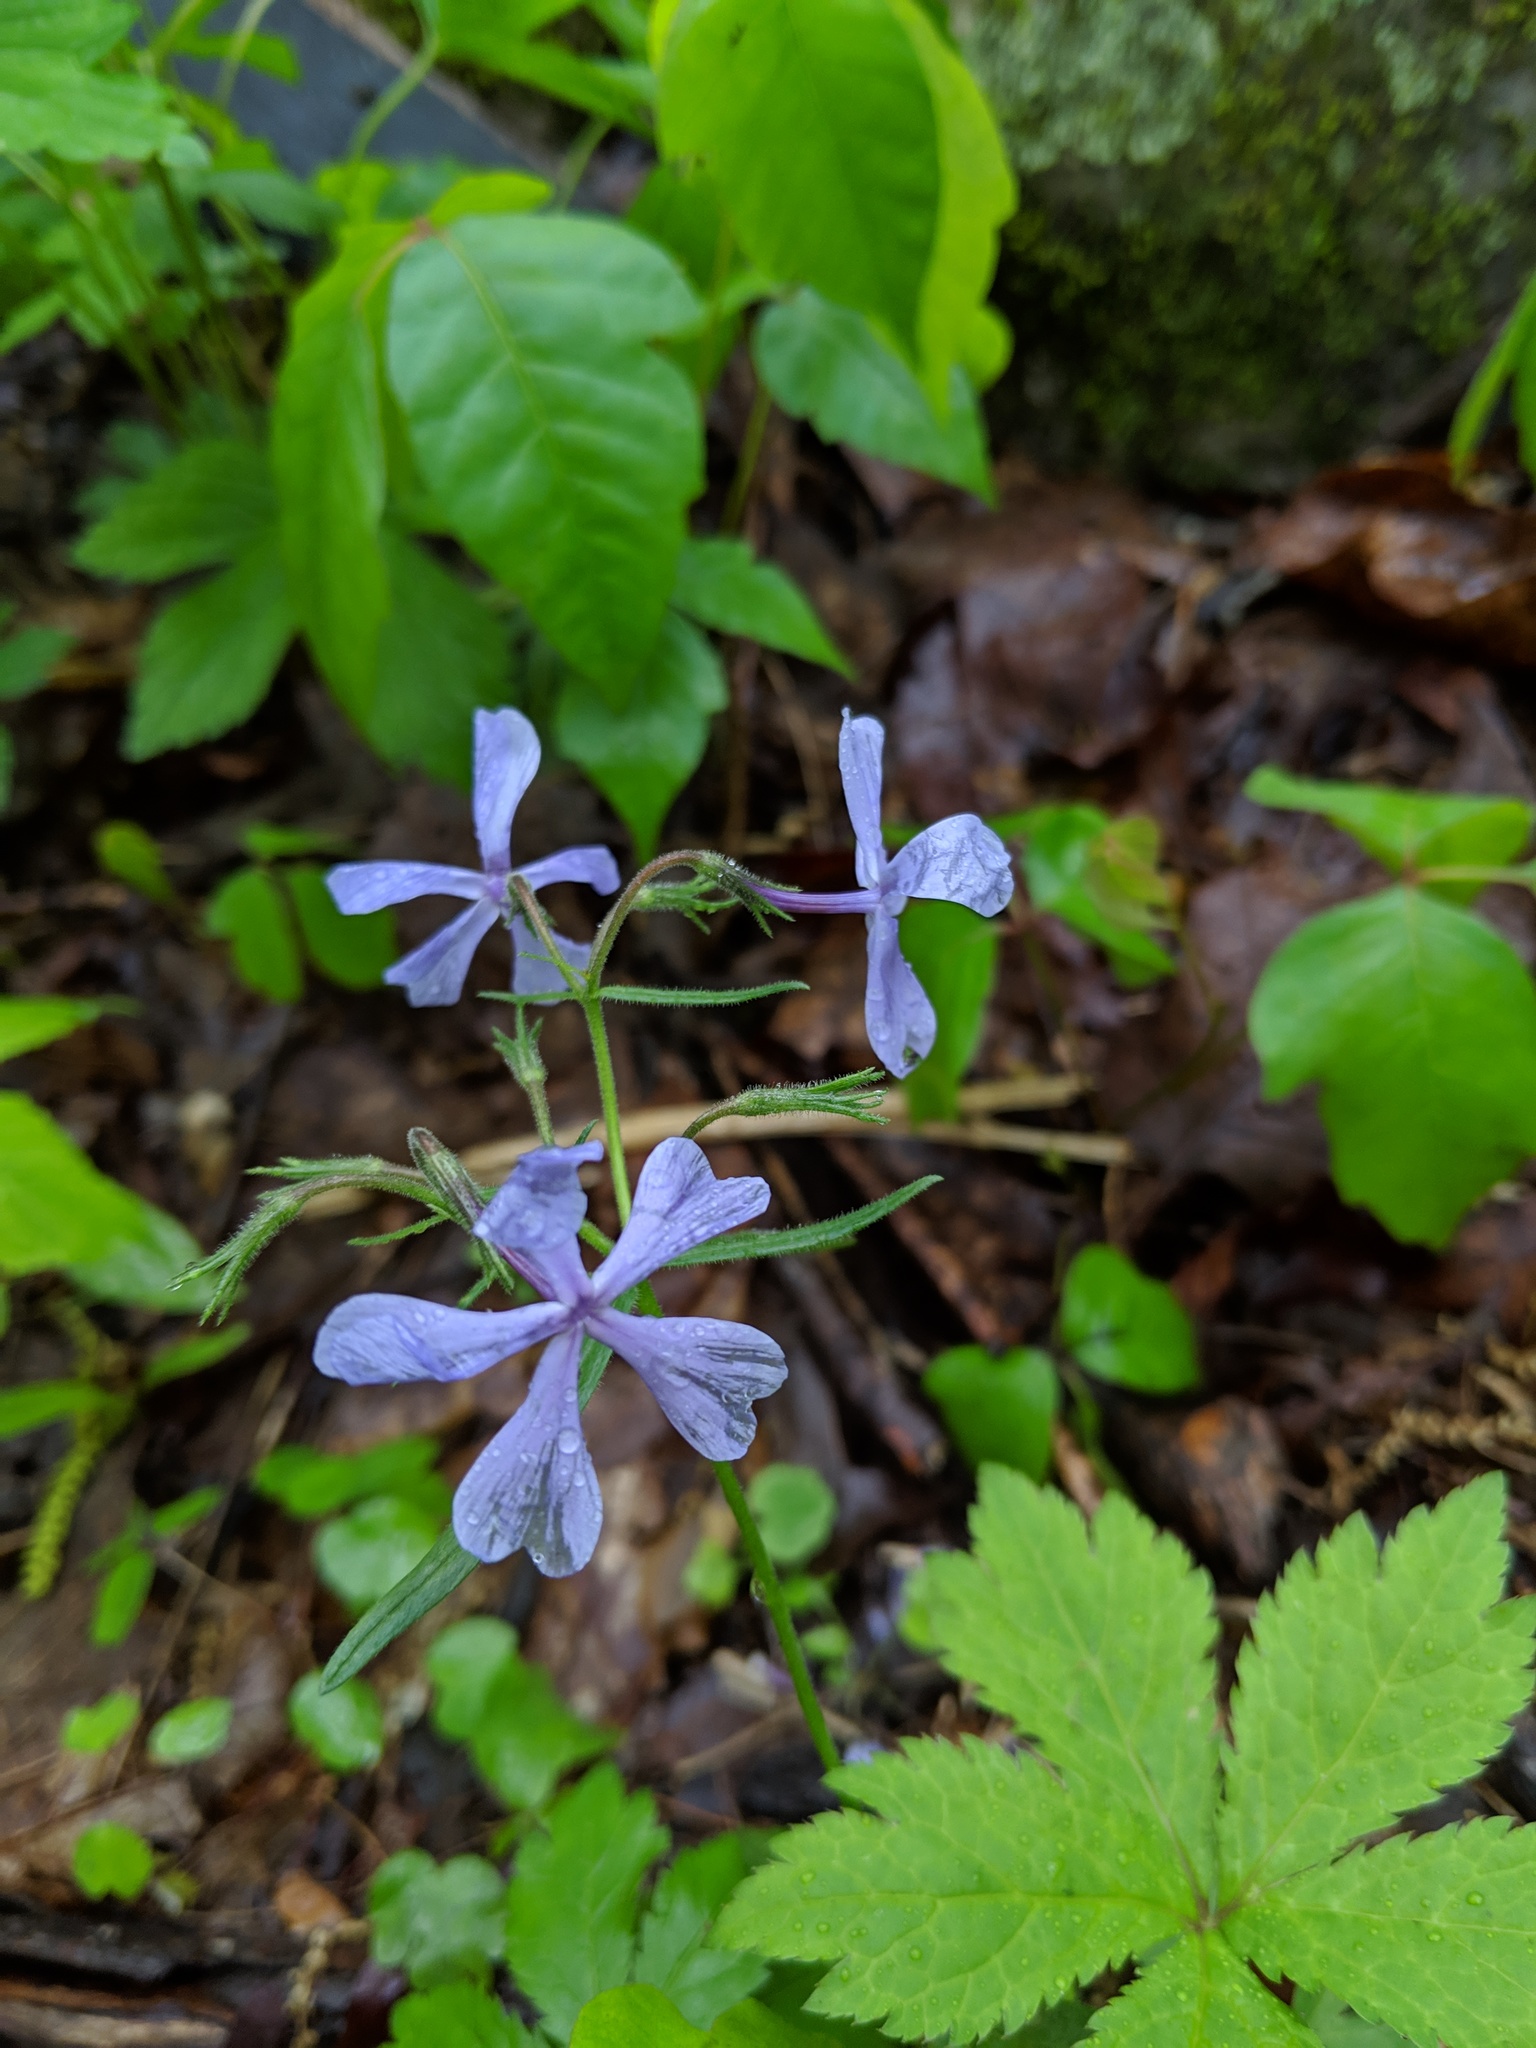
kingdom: Plantae
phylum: Tracheophyta
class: Magnoliopsida
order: Ericales
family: Polemoniaceae
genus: Phlox
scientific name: Phlox divaricata
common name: Blue phlox
